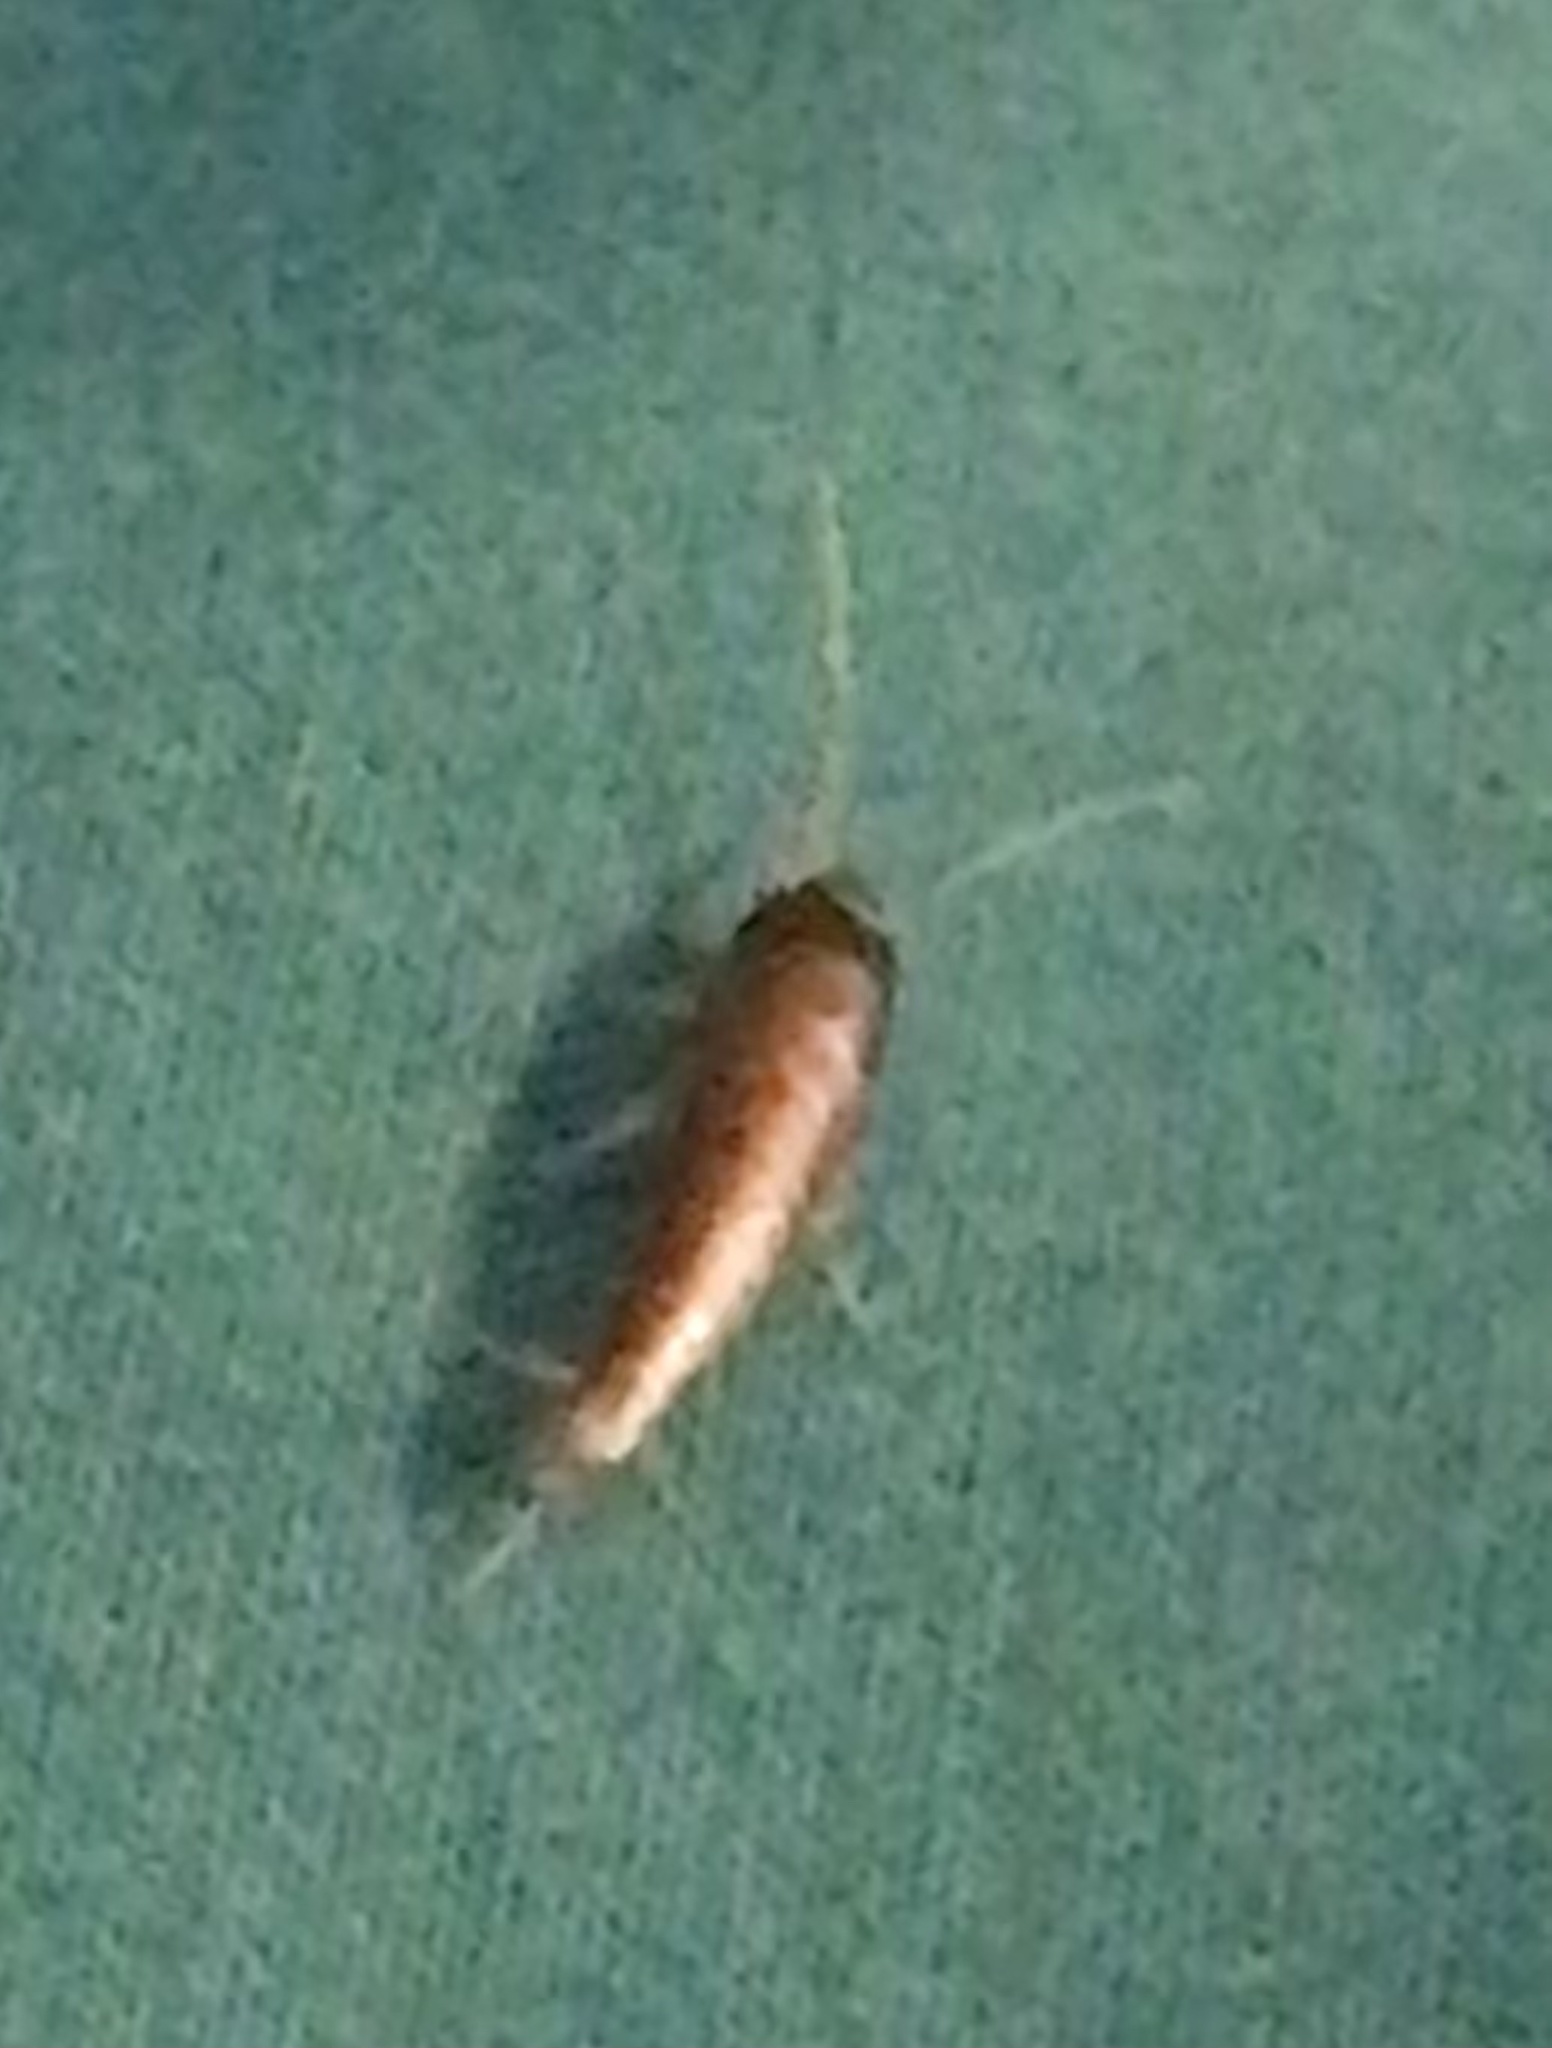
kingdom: Animalia
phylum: Arthropoda
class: Insecta
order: Zygentoma
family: Lepismatidae
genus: Lepisma
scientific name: Lepisma saccharinum
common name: Silverfish
